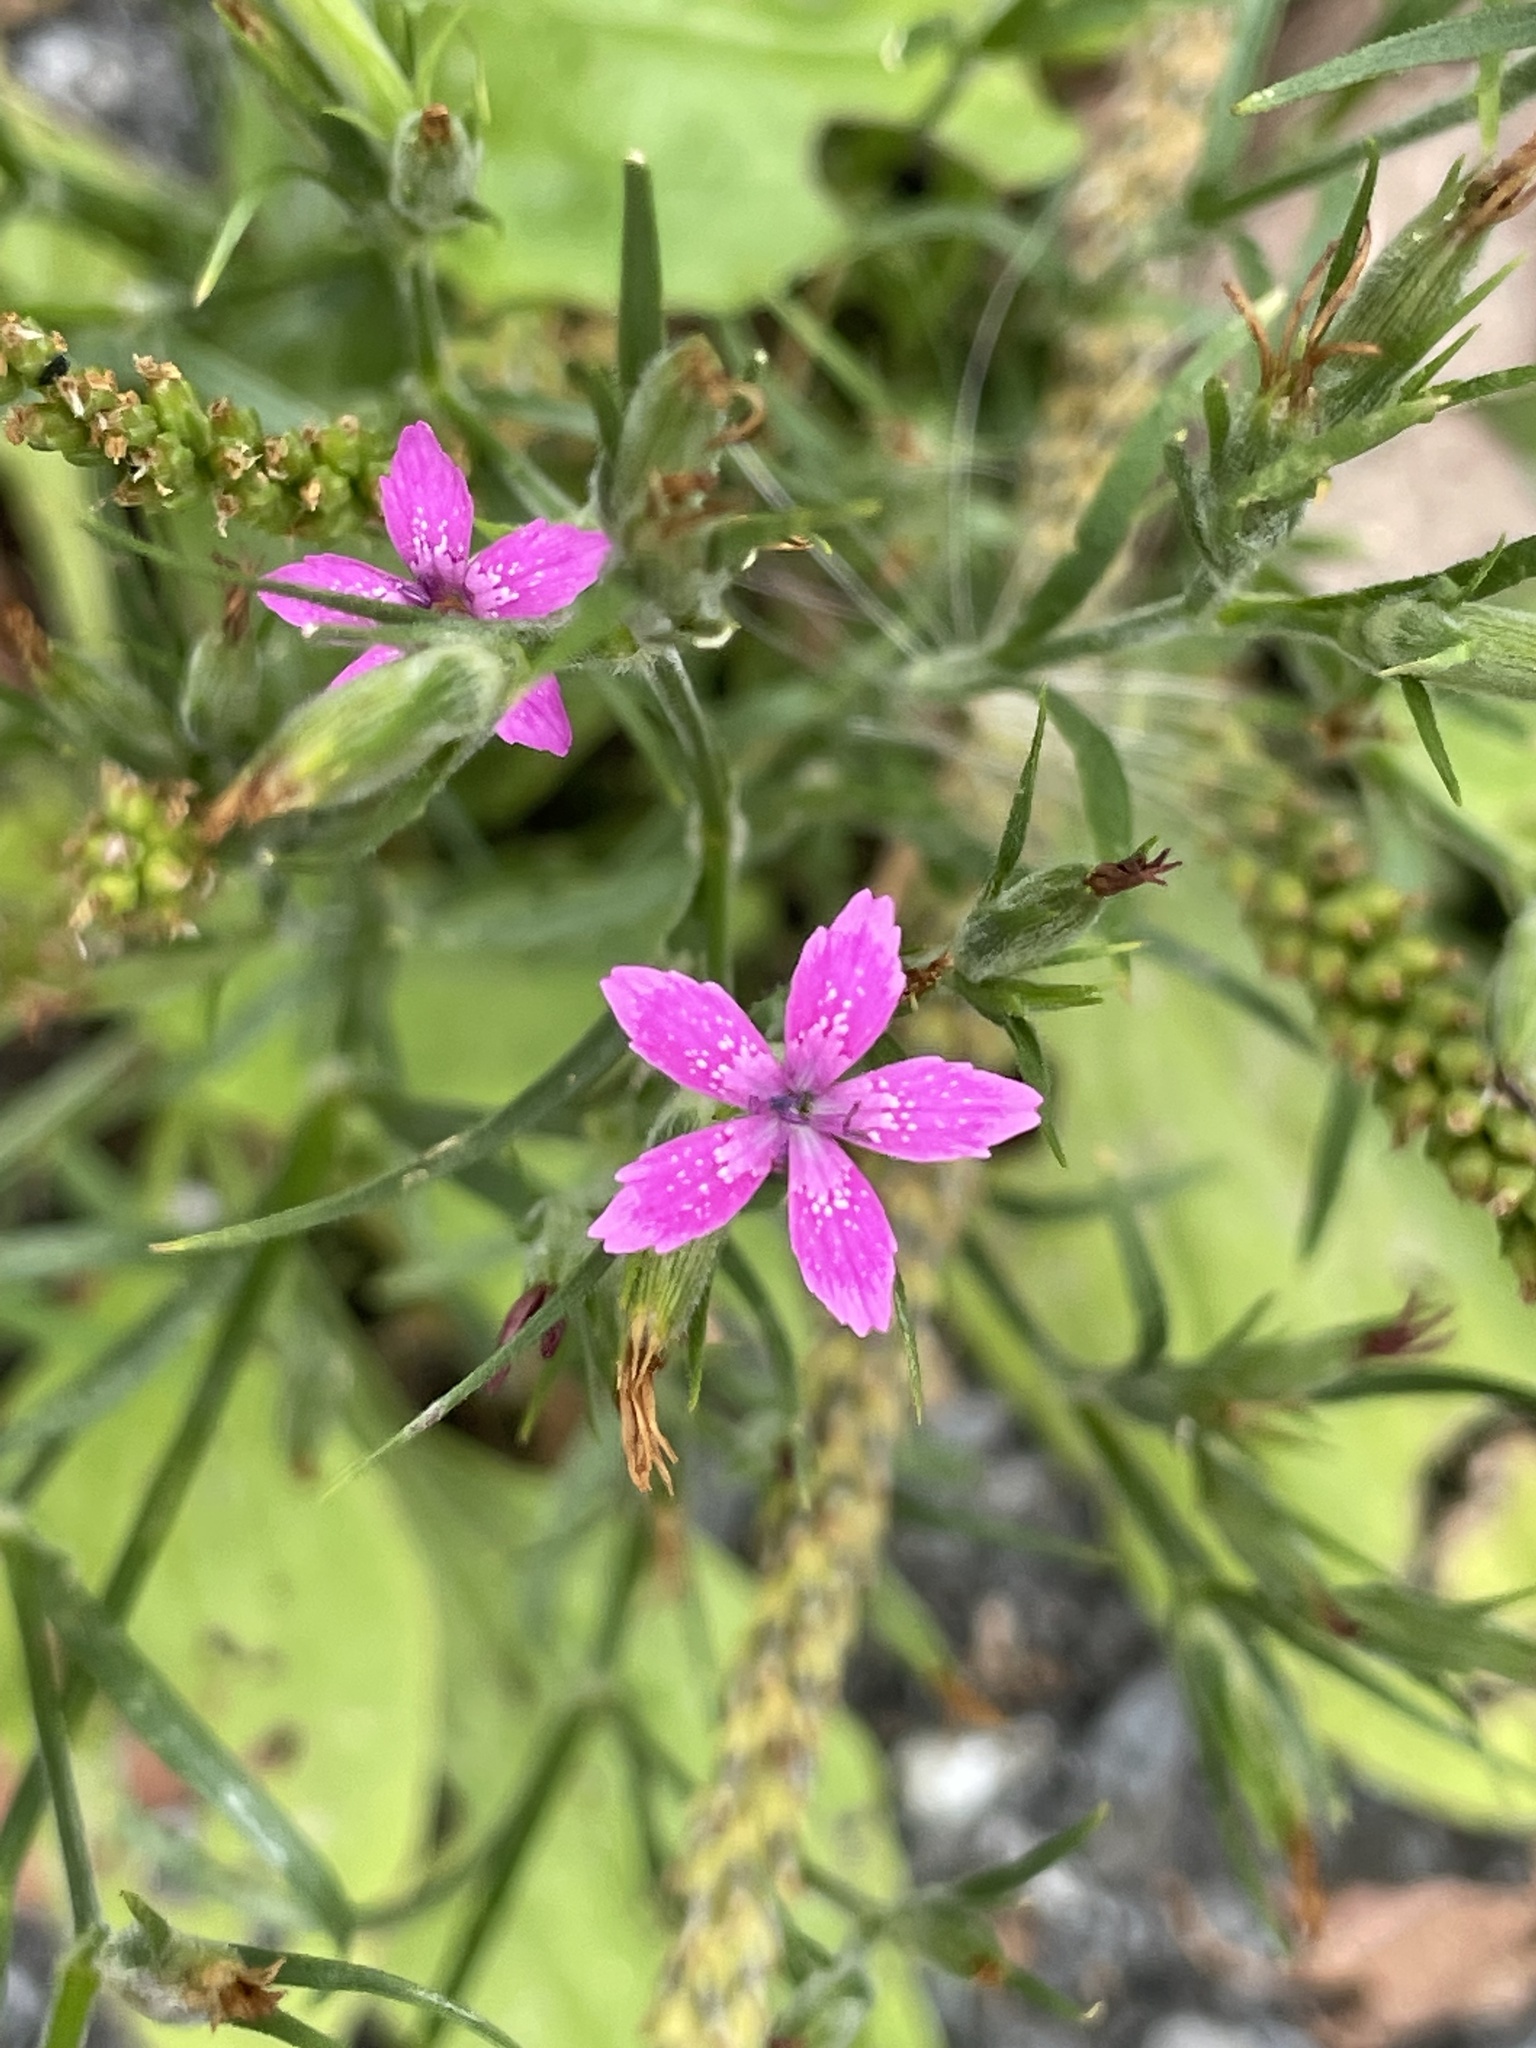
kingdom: Plantae
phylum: Tracheophyta
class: Magnoliopsida
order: Caryophyllales
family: Caryophyllaceae
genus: Dianthus
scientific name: Dianthus armeria
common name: Deptford pink
